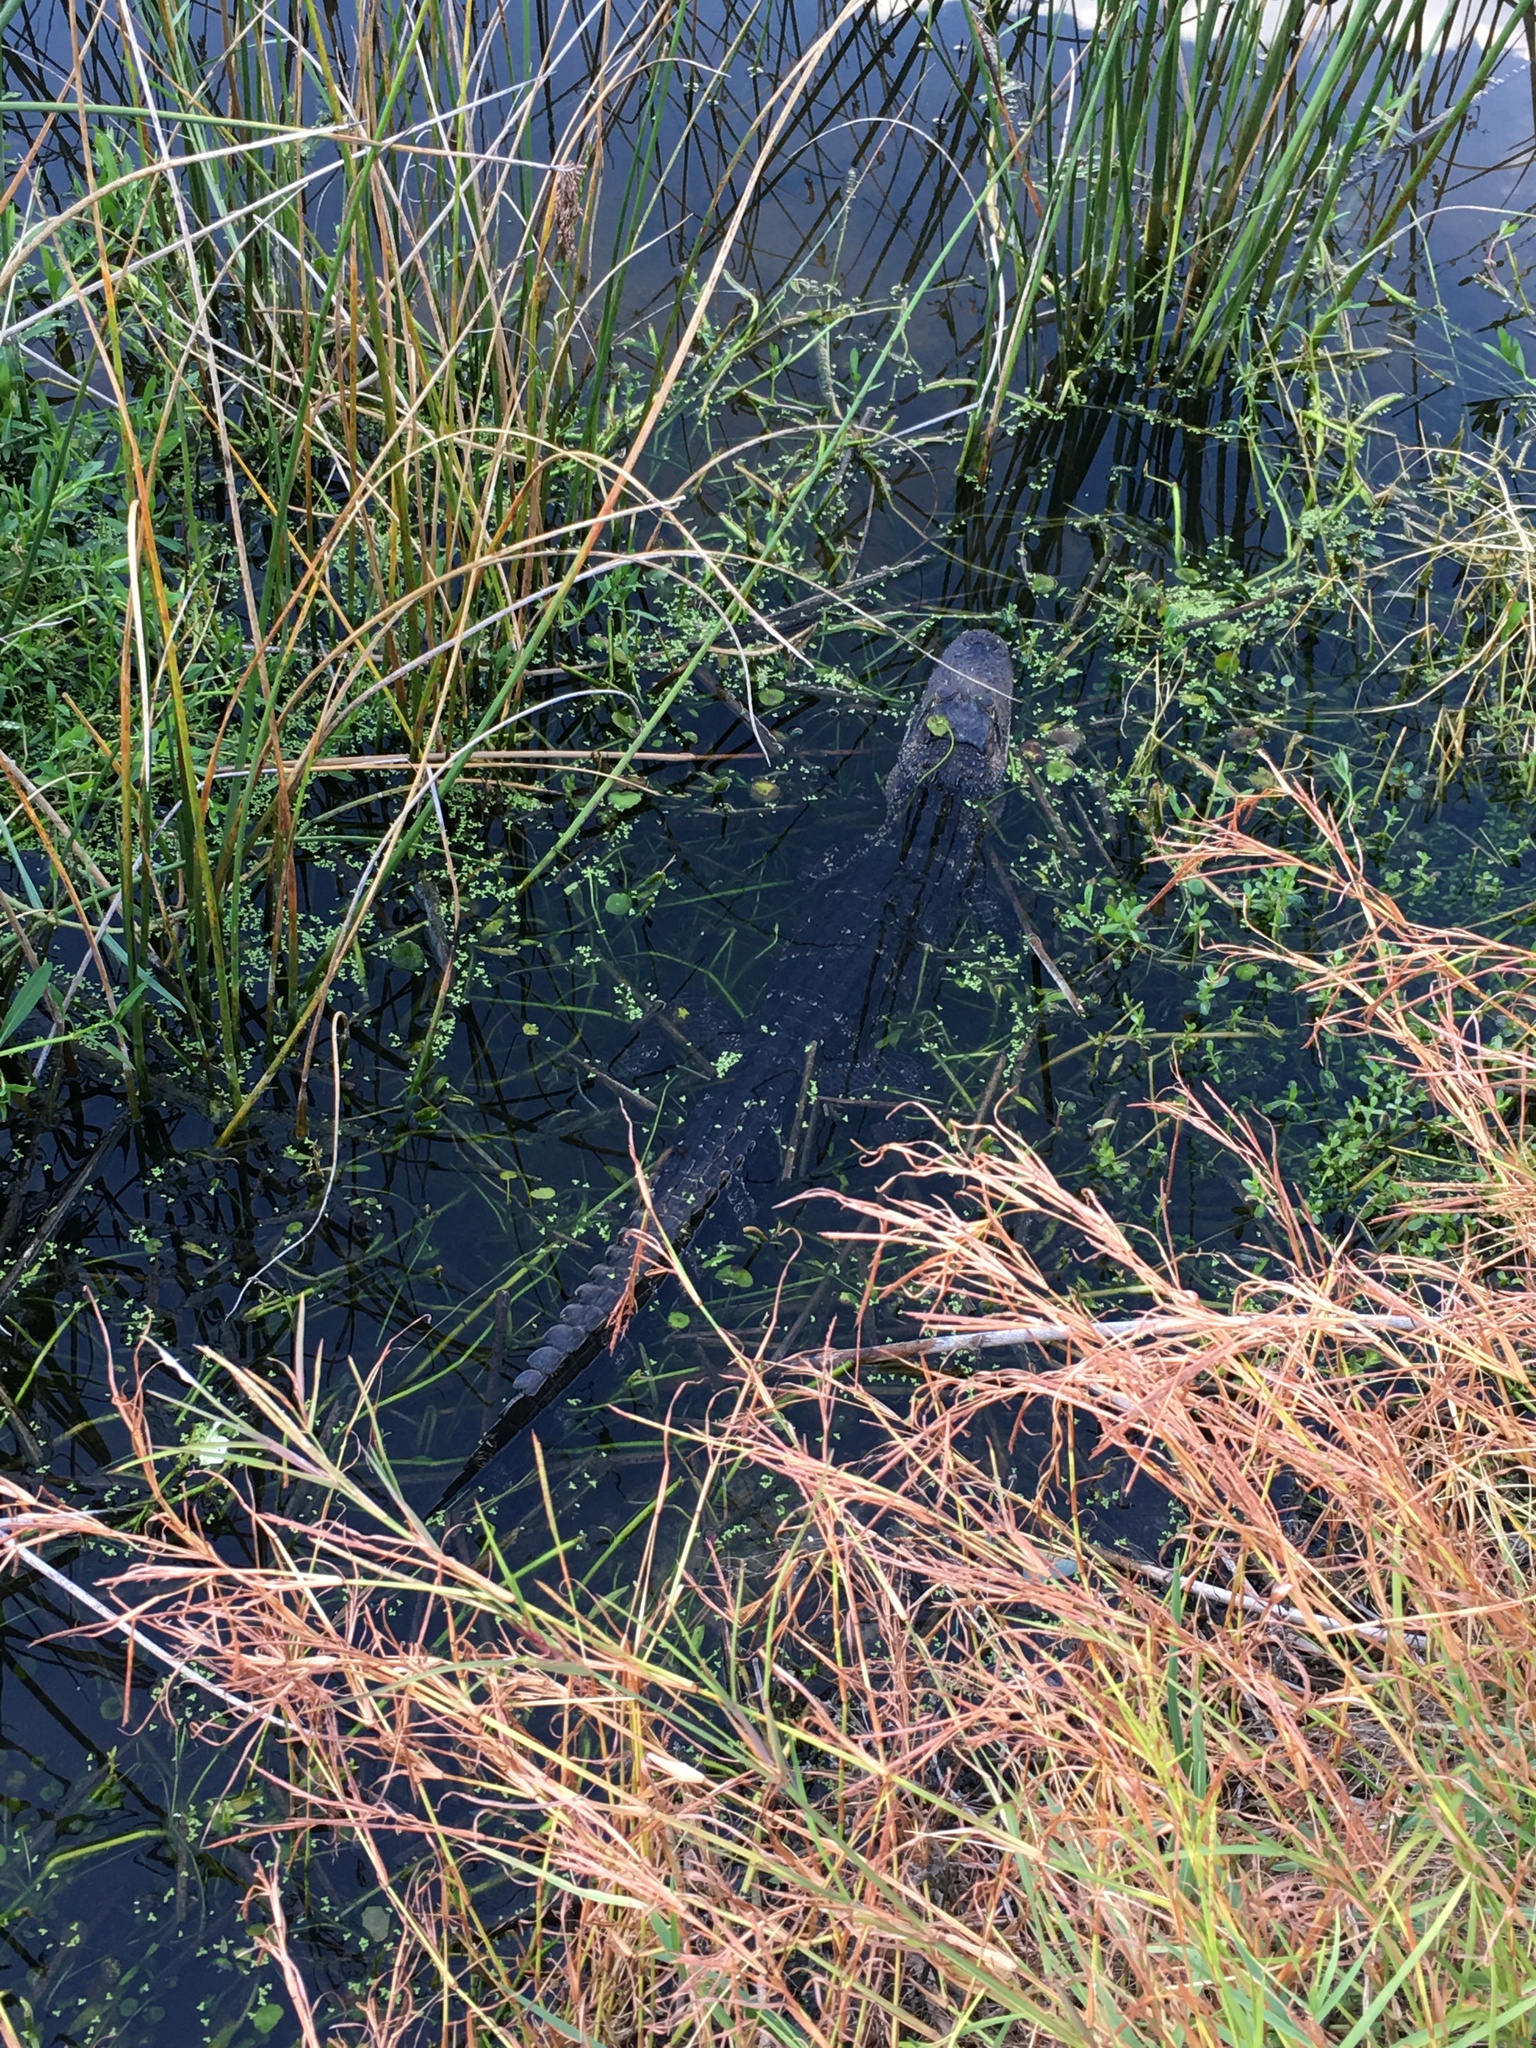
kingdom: Animalia
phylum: Chordata
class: Crocodylia
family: Alligatoridae
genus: Alligator
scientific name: Alligator mississippiensis
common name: American alligator
